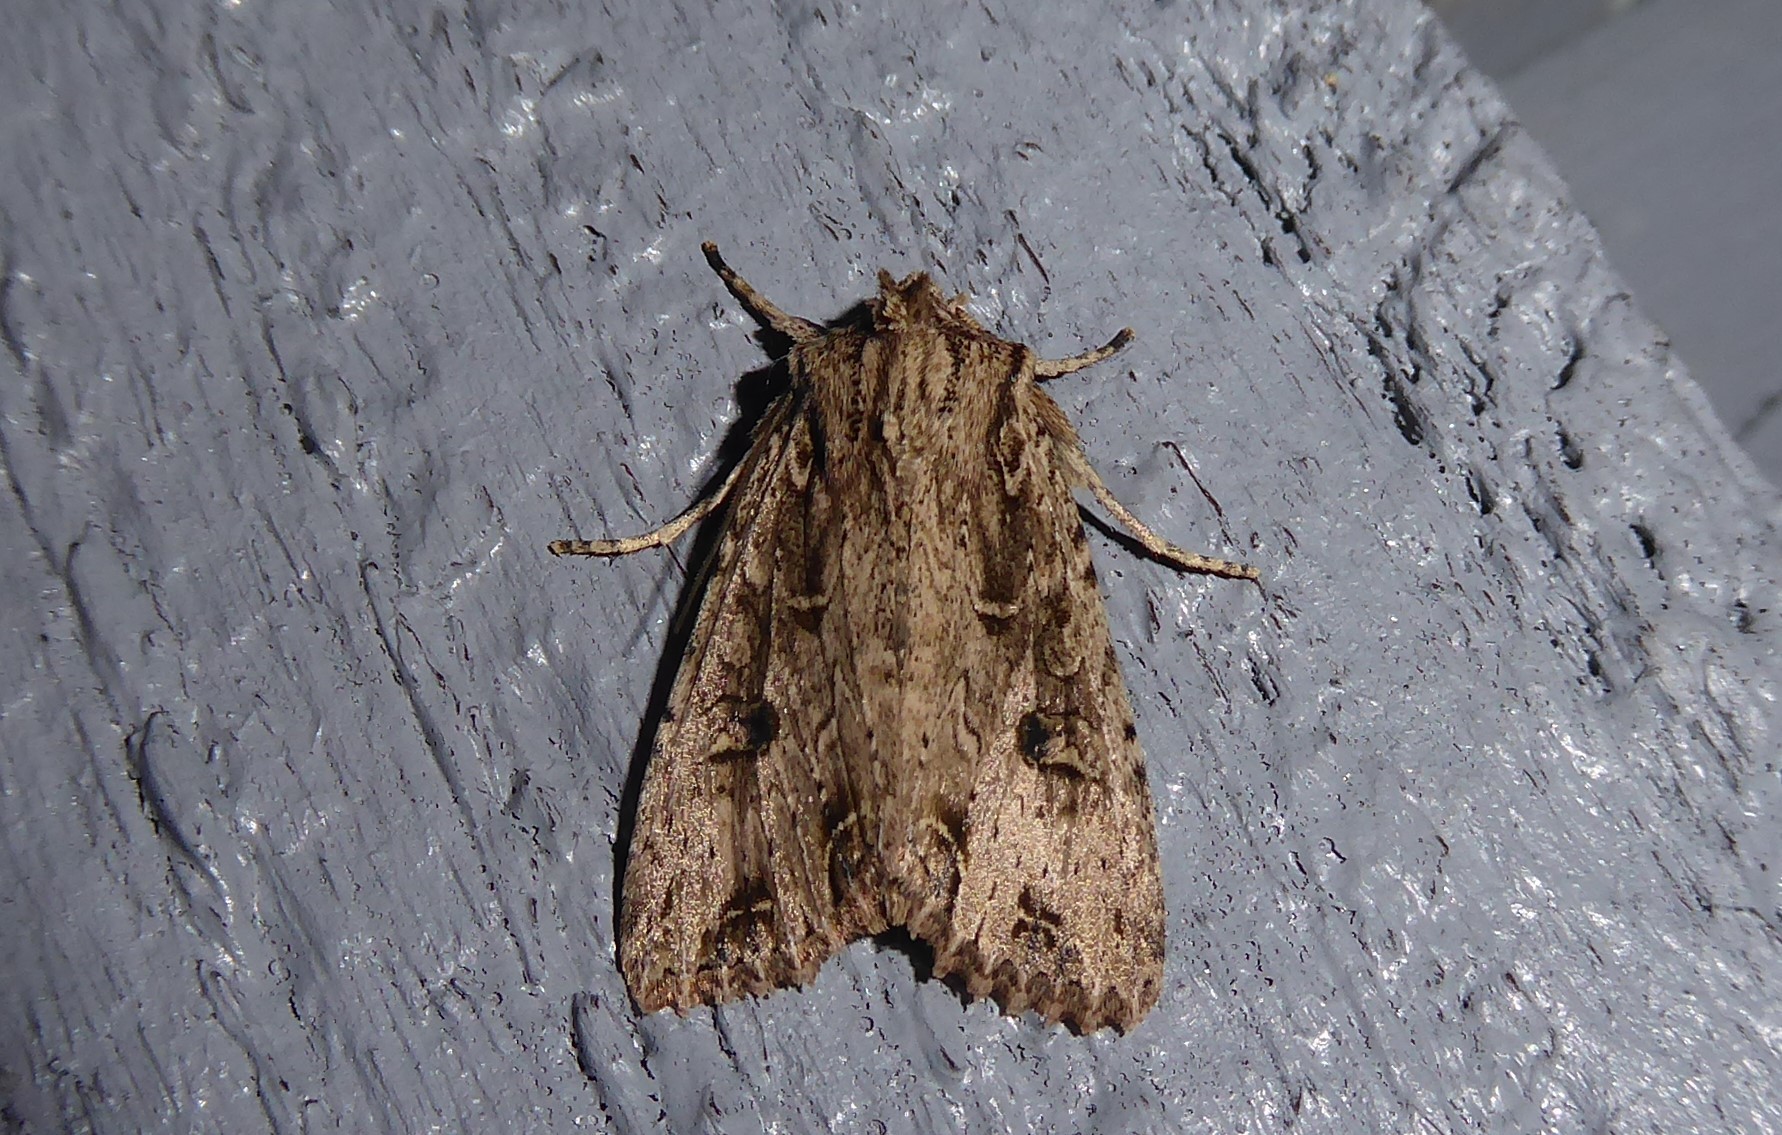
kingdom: Animalia
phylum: Arthropoda
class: Insecta
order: Lepidoptera
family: Noctuidae
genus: Ichneutica
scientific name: Ichneutica lignana
